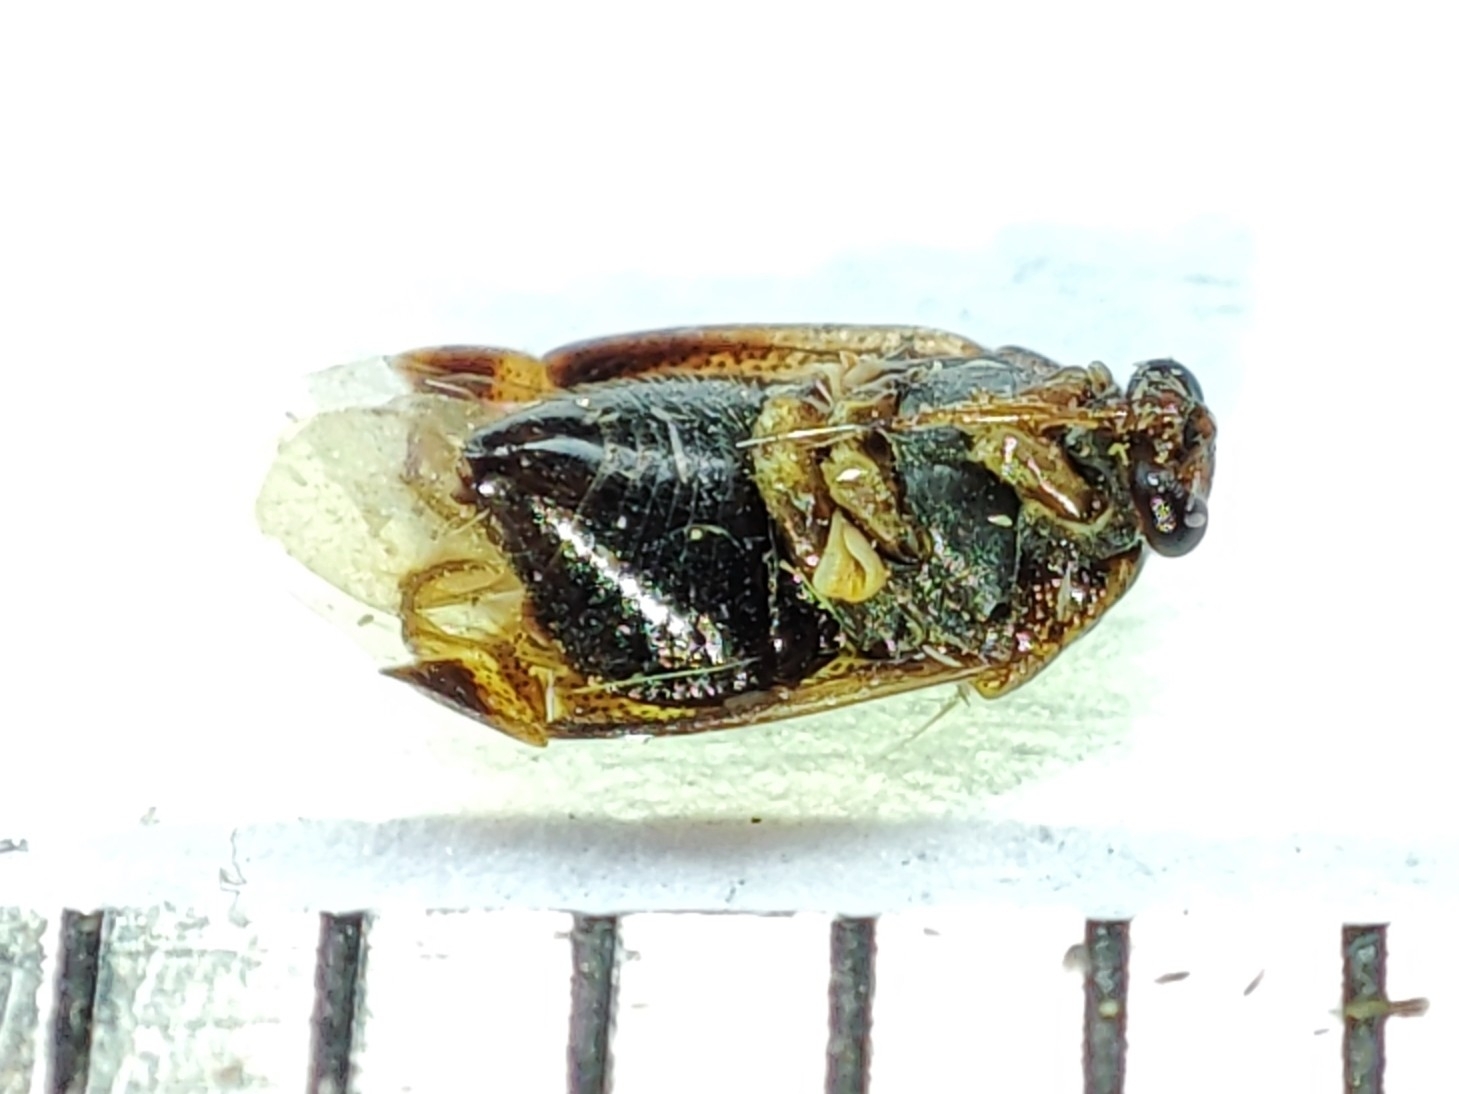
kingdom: Animalia
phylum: Arthropoda
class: Insecta
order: Hemiptera
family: Miridae
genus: Deraeocoris
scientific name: Deraeocoris lutescens
